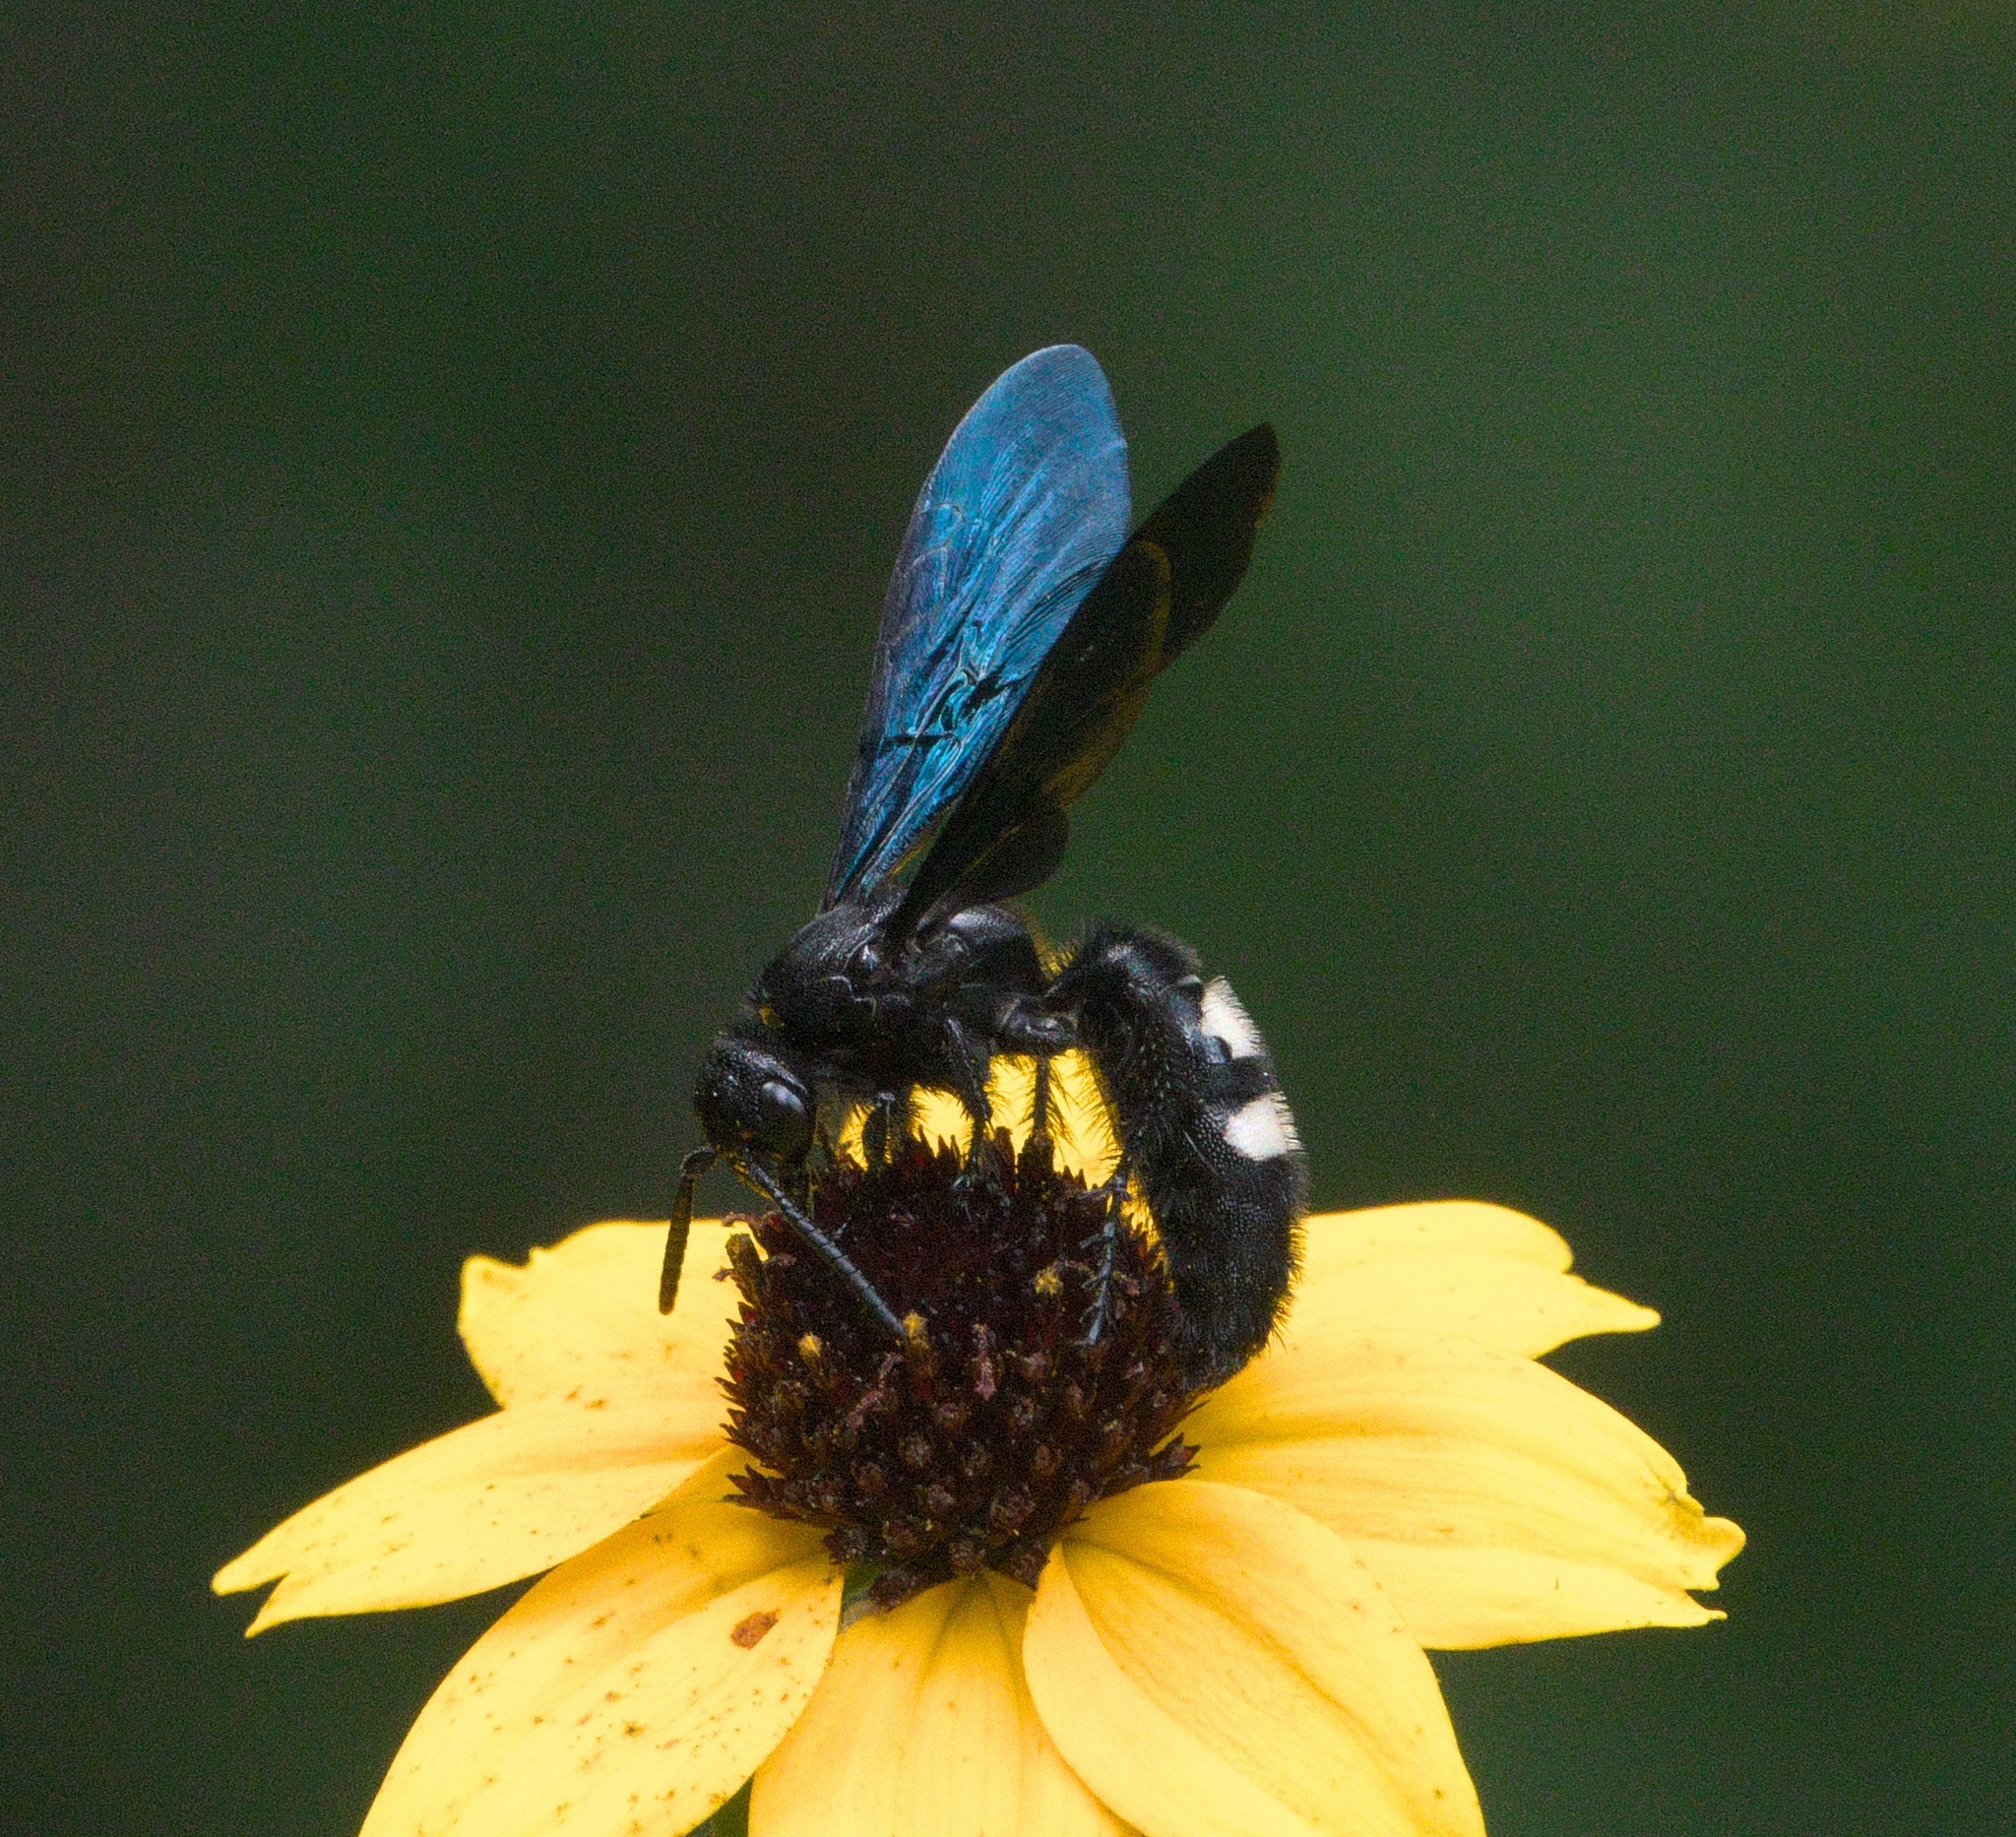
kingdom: Animalia
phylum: Arthropoda
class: Insecta
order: Hymenoptera
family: Scoliidae
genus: Scolia
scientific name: Scolia bicincta
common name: Double-banded scoliid wasp
